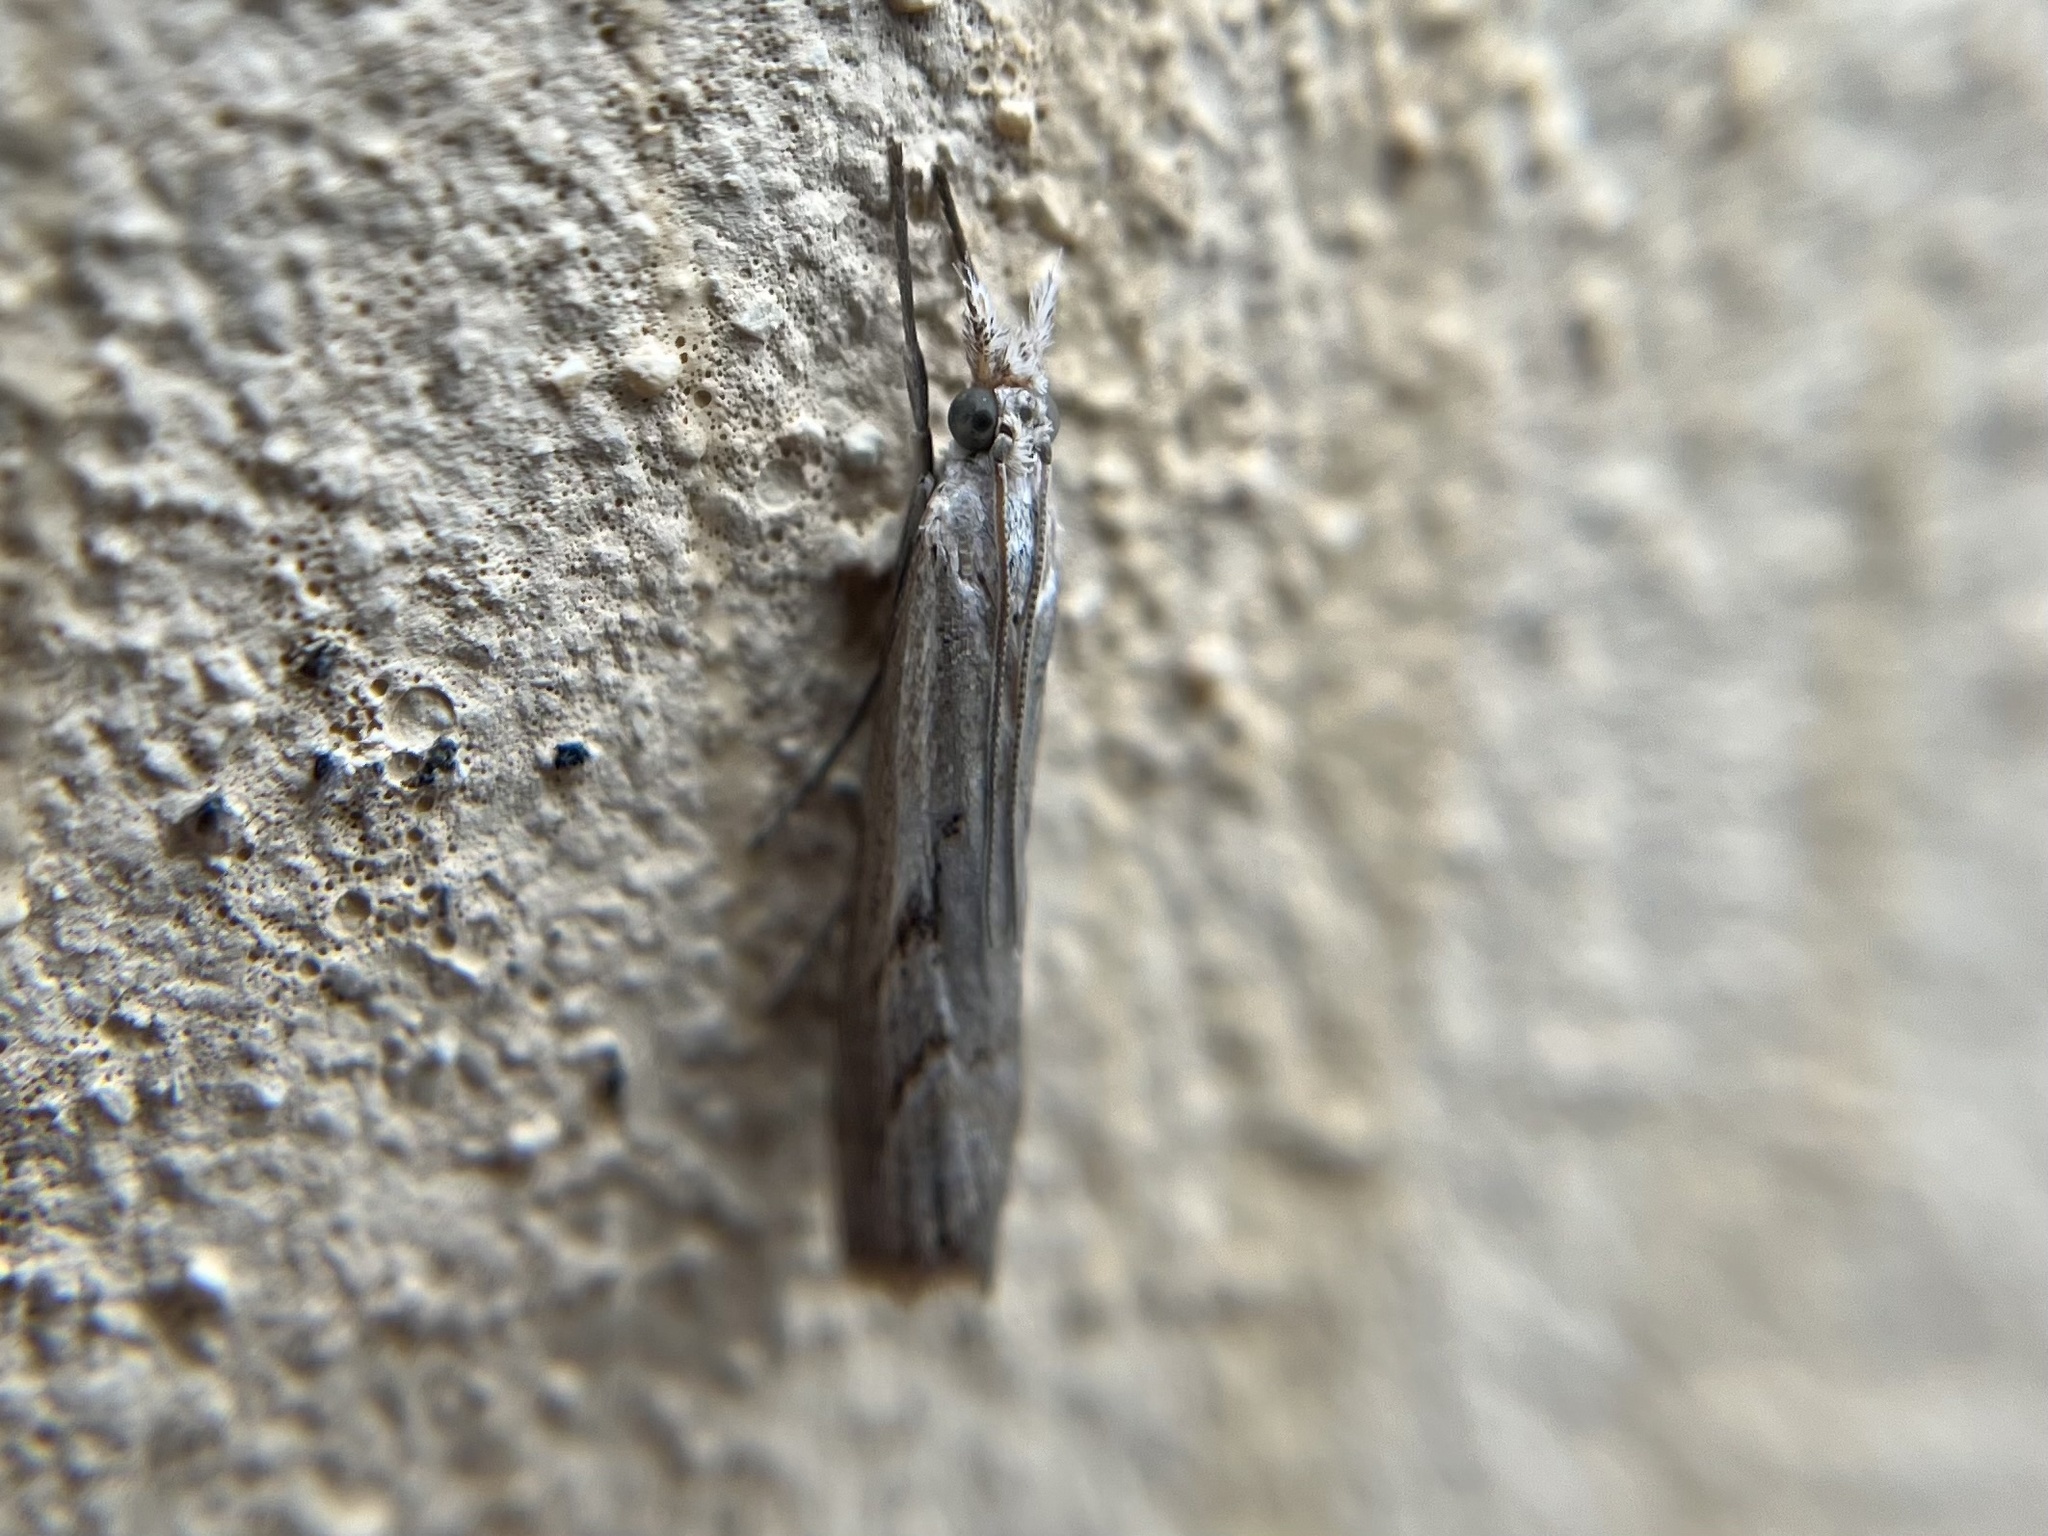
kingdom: Animalia
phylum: Arthropoda
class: Insecta
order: Lepidoptera
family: Crambidae
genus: Agriphila
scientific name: Agriphila geniculea
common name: Elbow-stripe grass-veneer
